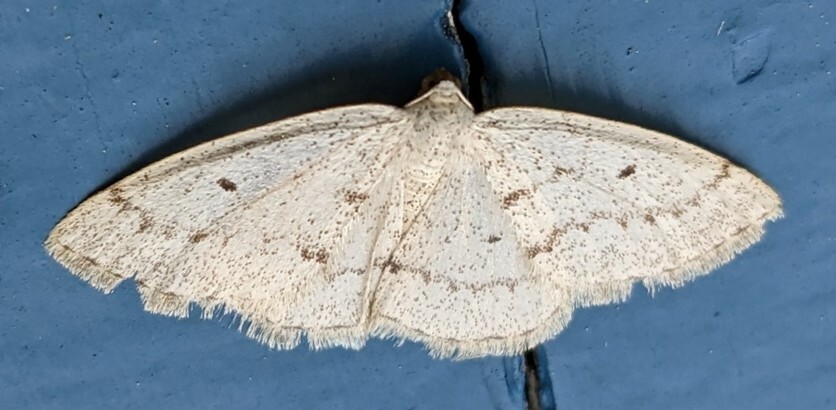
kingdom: Animalia
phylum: Arthropoda
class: Insecta
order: Lepidoptera
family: Geometridae
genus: Lomographa
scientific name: Lomographa glomeraria
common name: Gray spring moth
